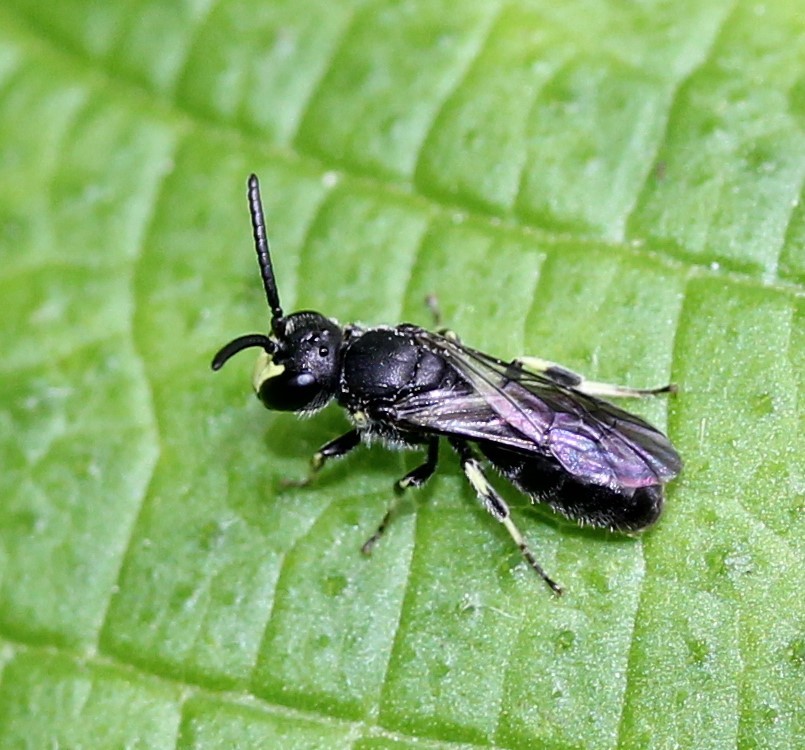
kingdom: Animalia
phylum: Arthropoda
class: Insecta
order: Hymenoptera
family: Colletidae
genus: Hylaeus
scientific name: Hylaeus modestus
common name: Yellow-faced bee
